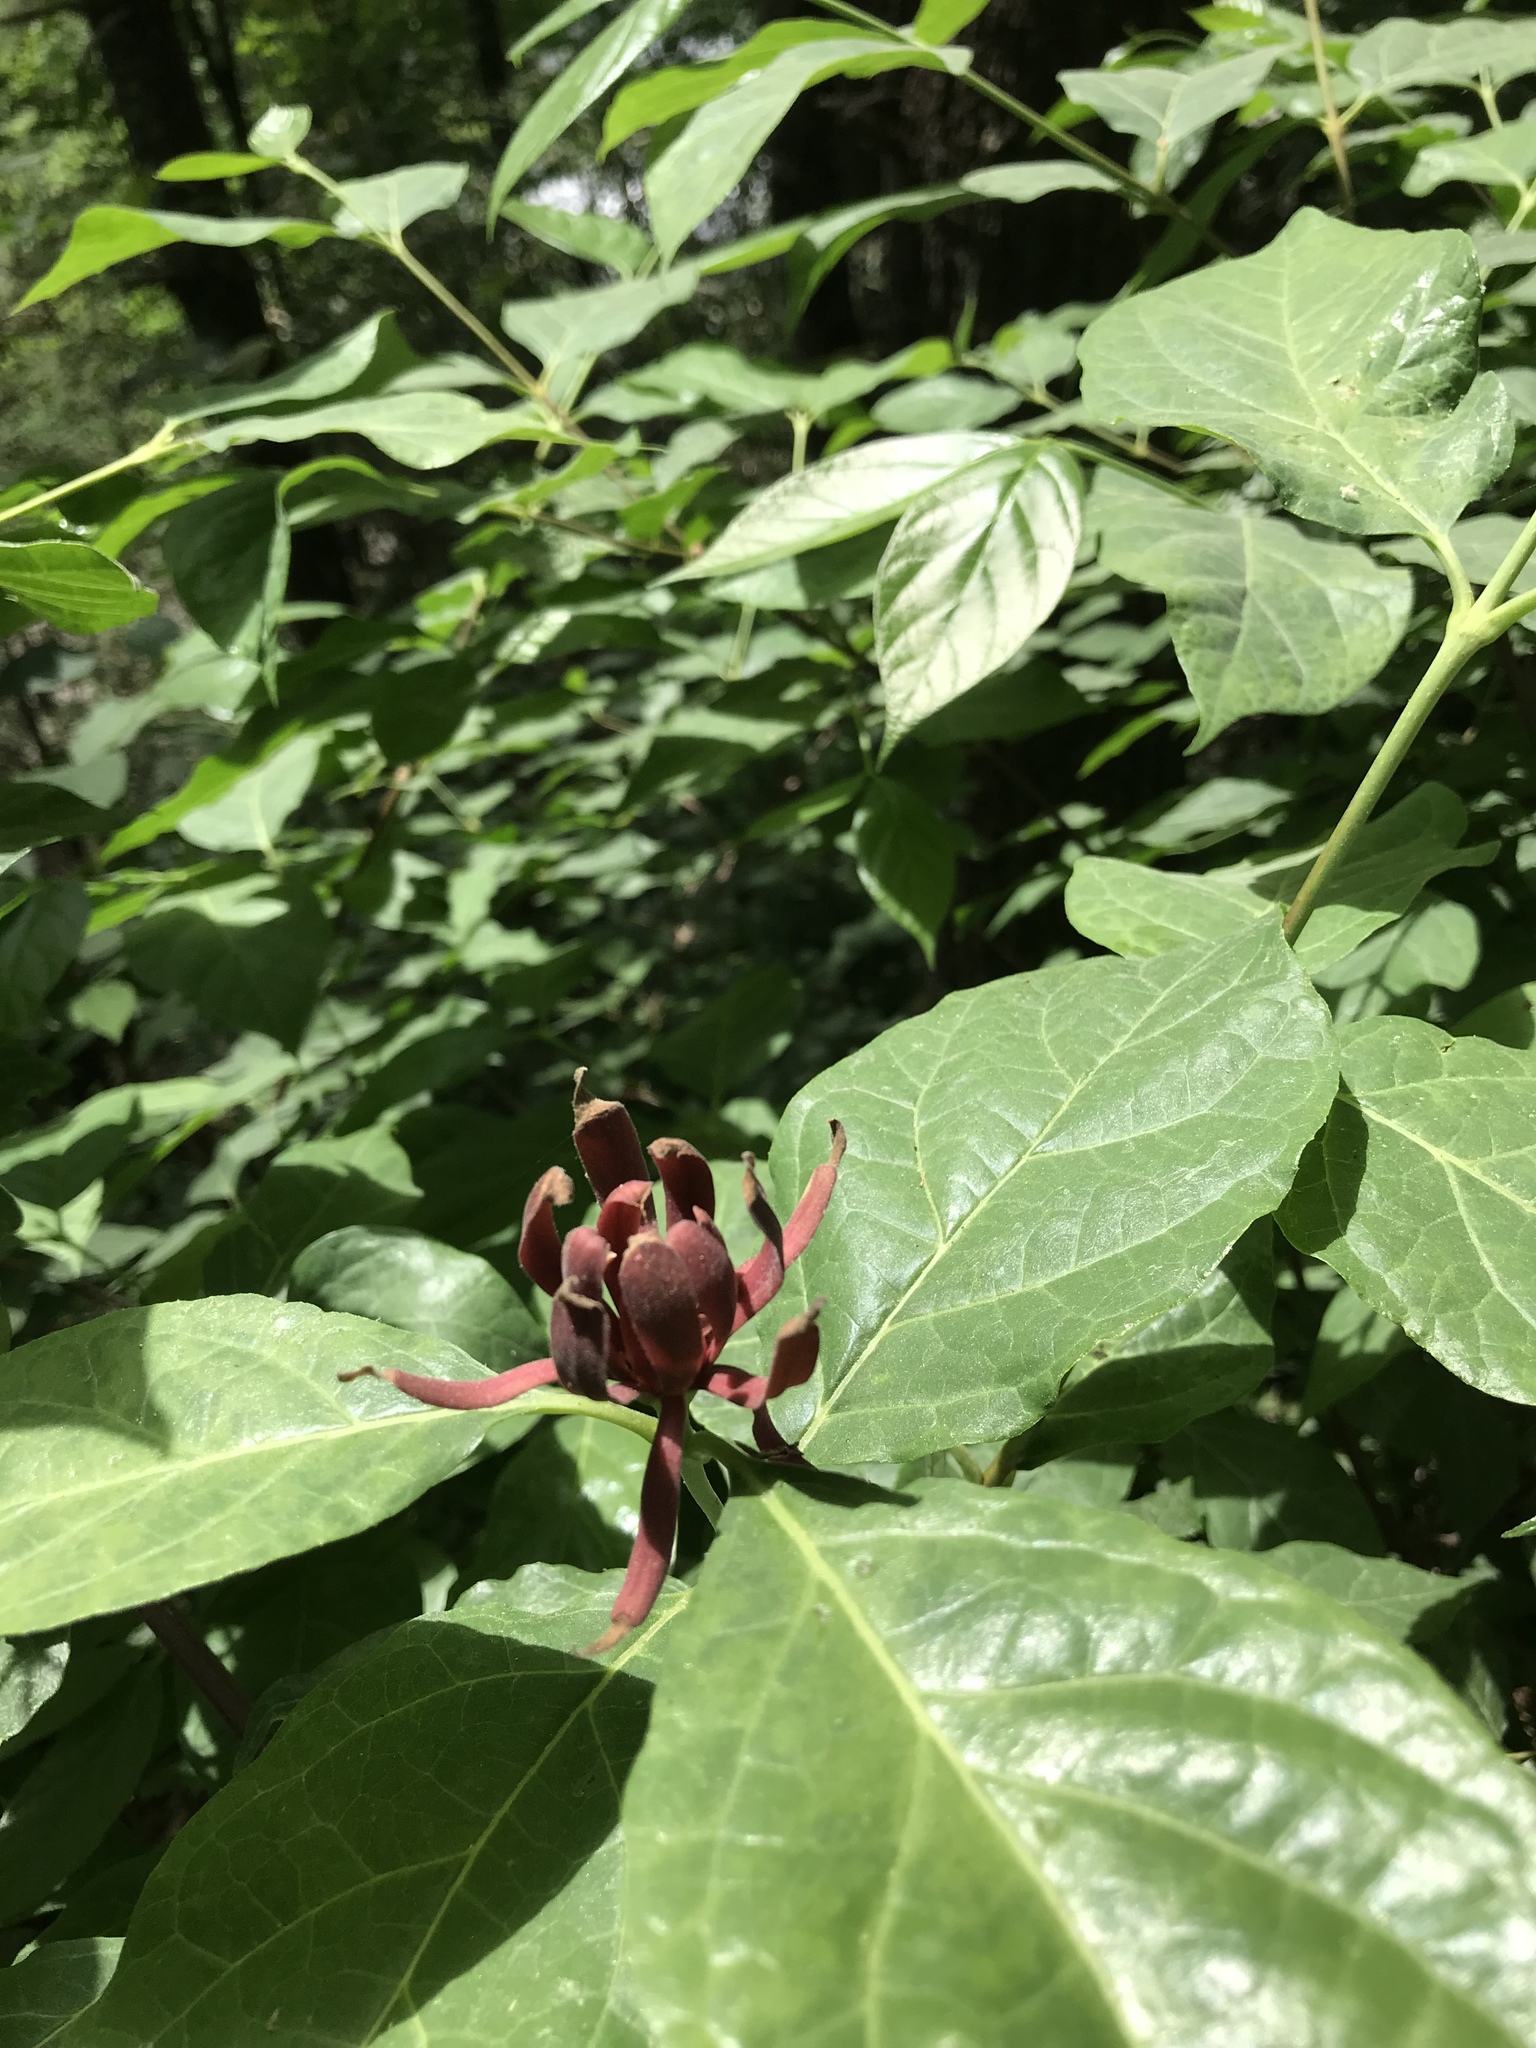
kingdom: Plantae
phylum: Tracheophyta
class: Magnoliopsida
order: Laurales
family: Calycanthaceae
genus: Calycanthus
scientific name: Calycanthus floridus
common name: Carolina-allspice
